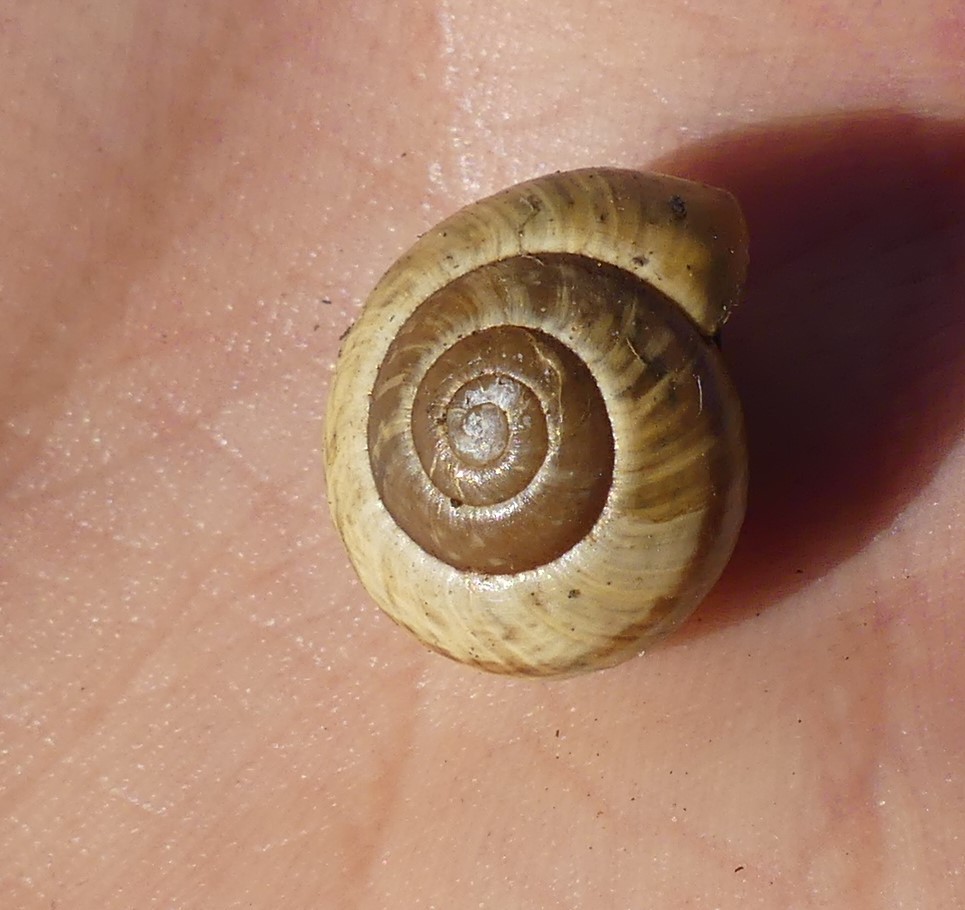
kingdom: Animalia
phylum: Mollusca
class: Gastropoda
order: Stylommatophora
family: Helicidae
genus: Arianta
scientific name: Arianta arbustorum
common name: Copse snail
